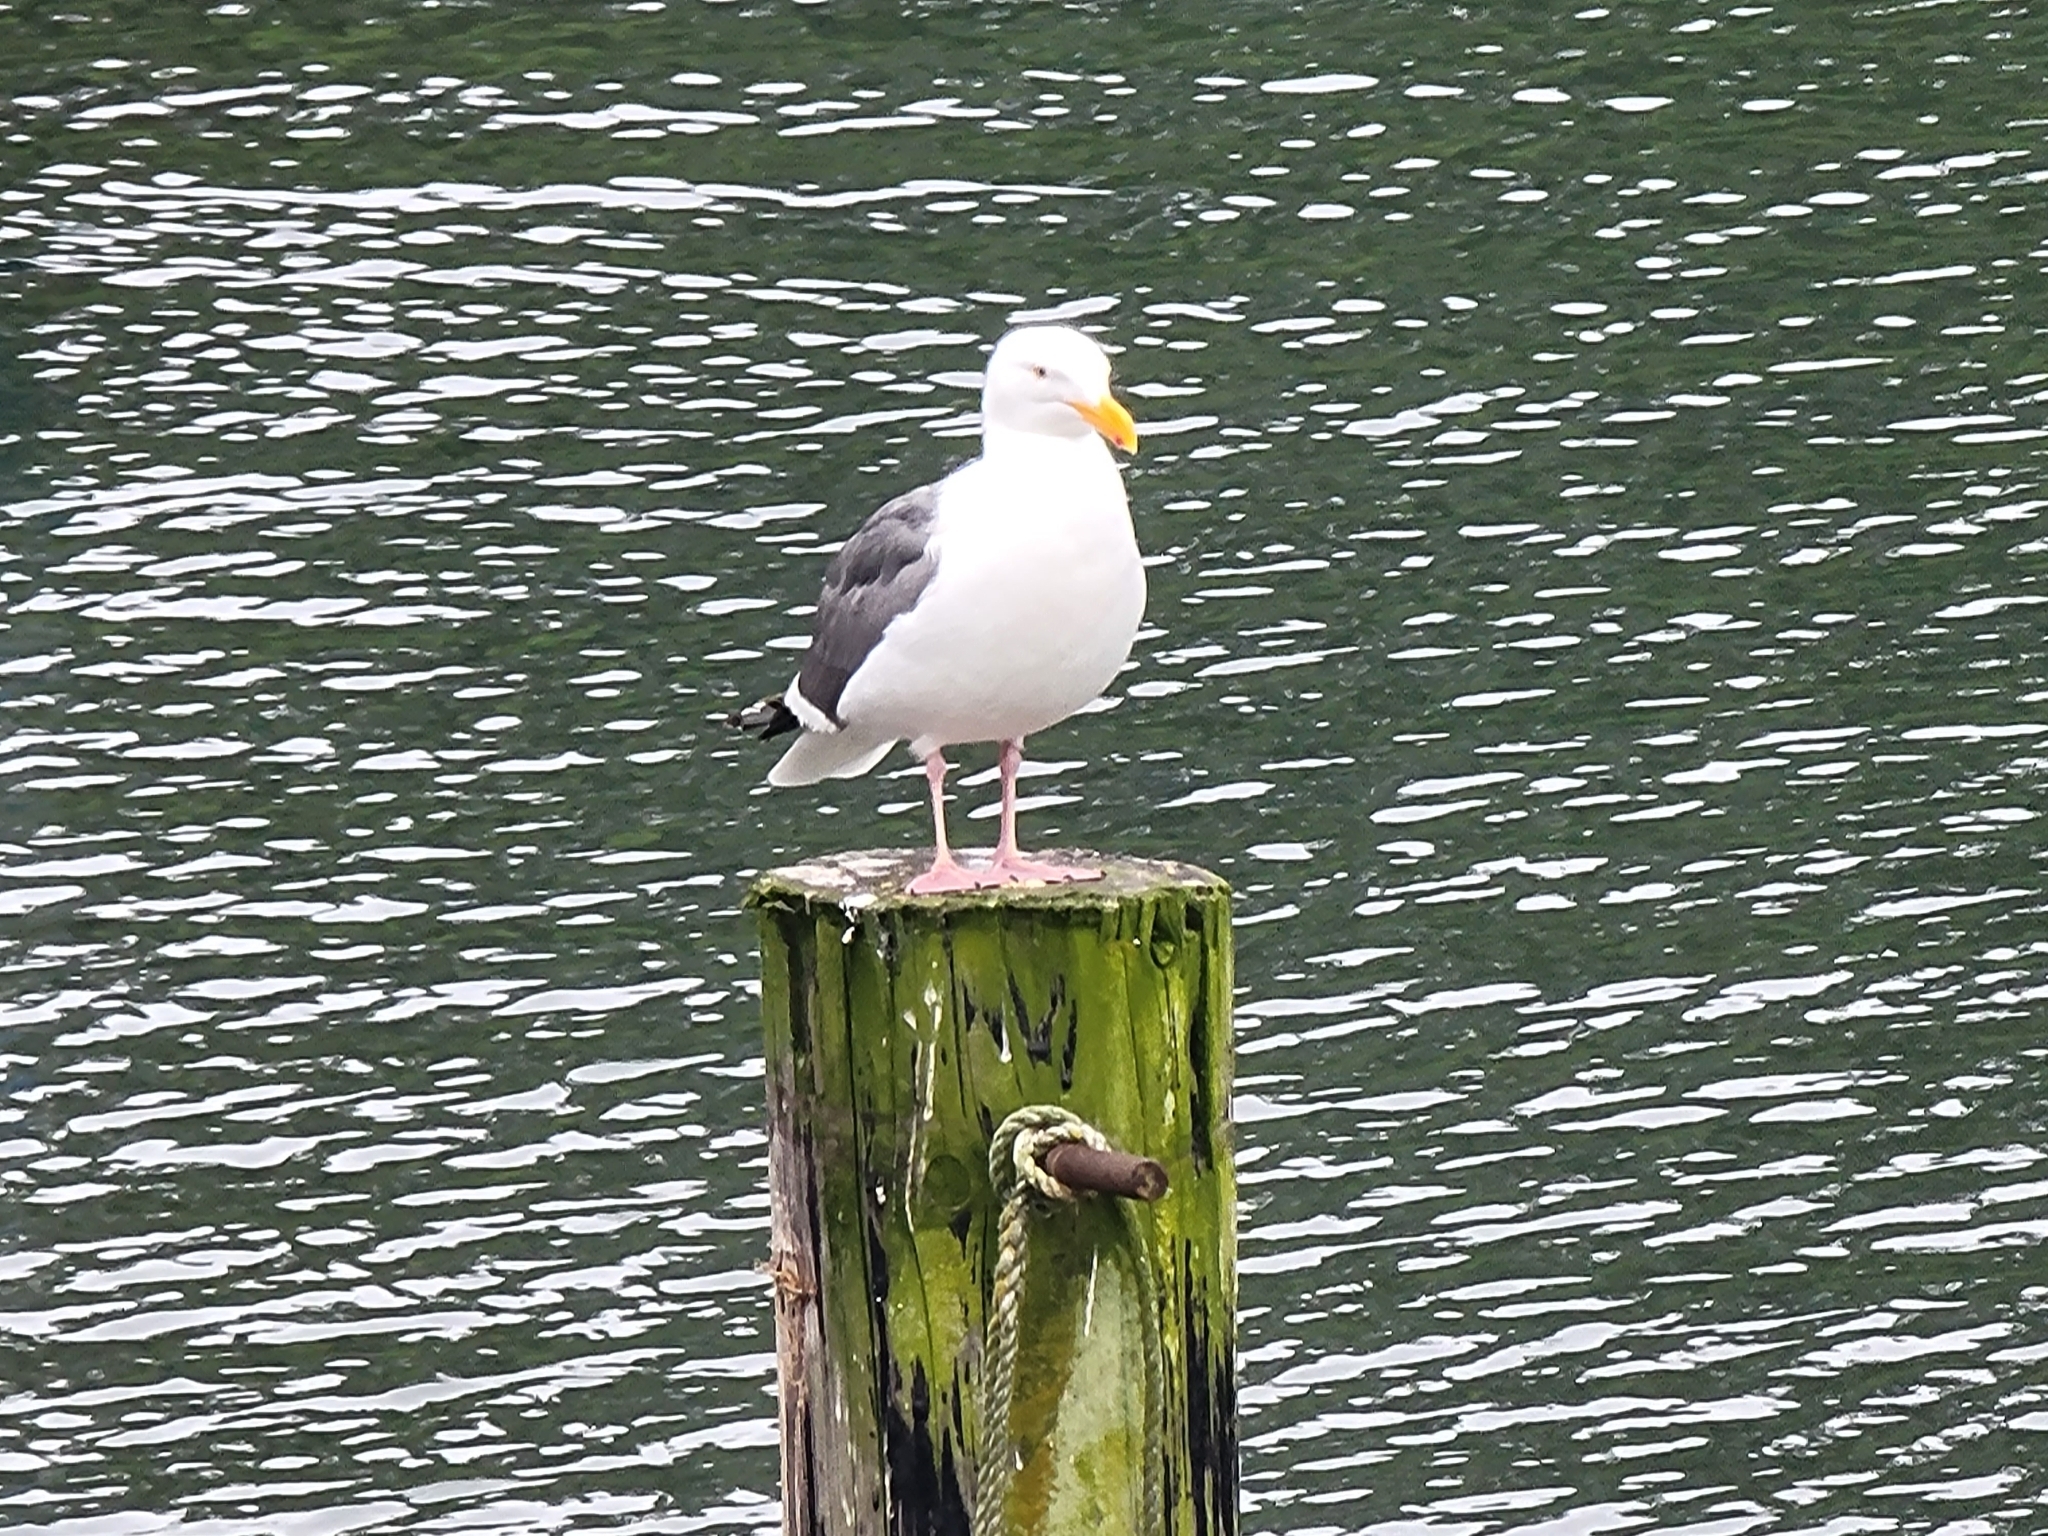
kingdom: Animalia
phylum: Chordata
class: Aves
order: Charadriiformes
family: Laridae
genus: Larus
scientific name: Larus occidentalis
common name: Western gull
